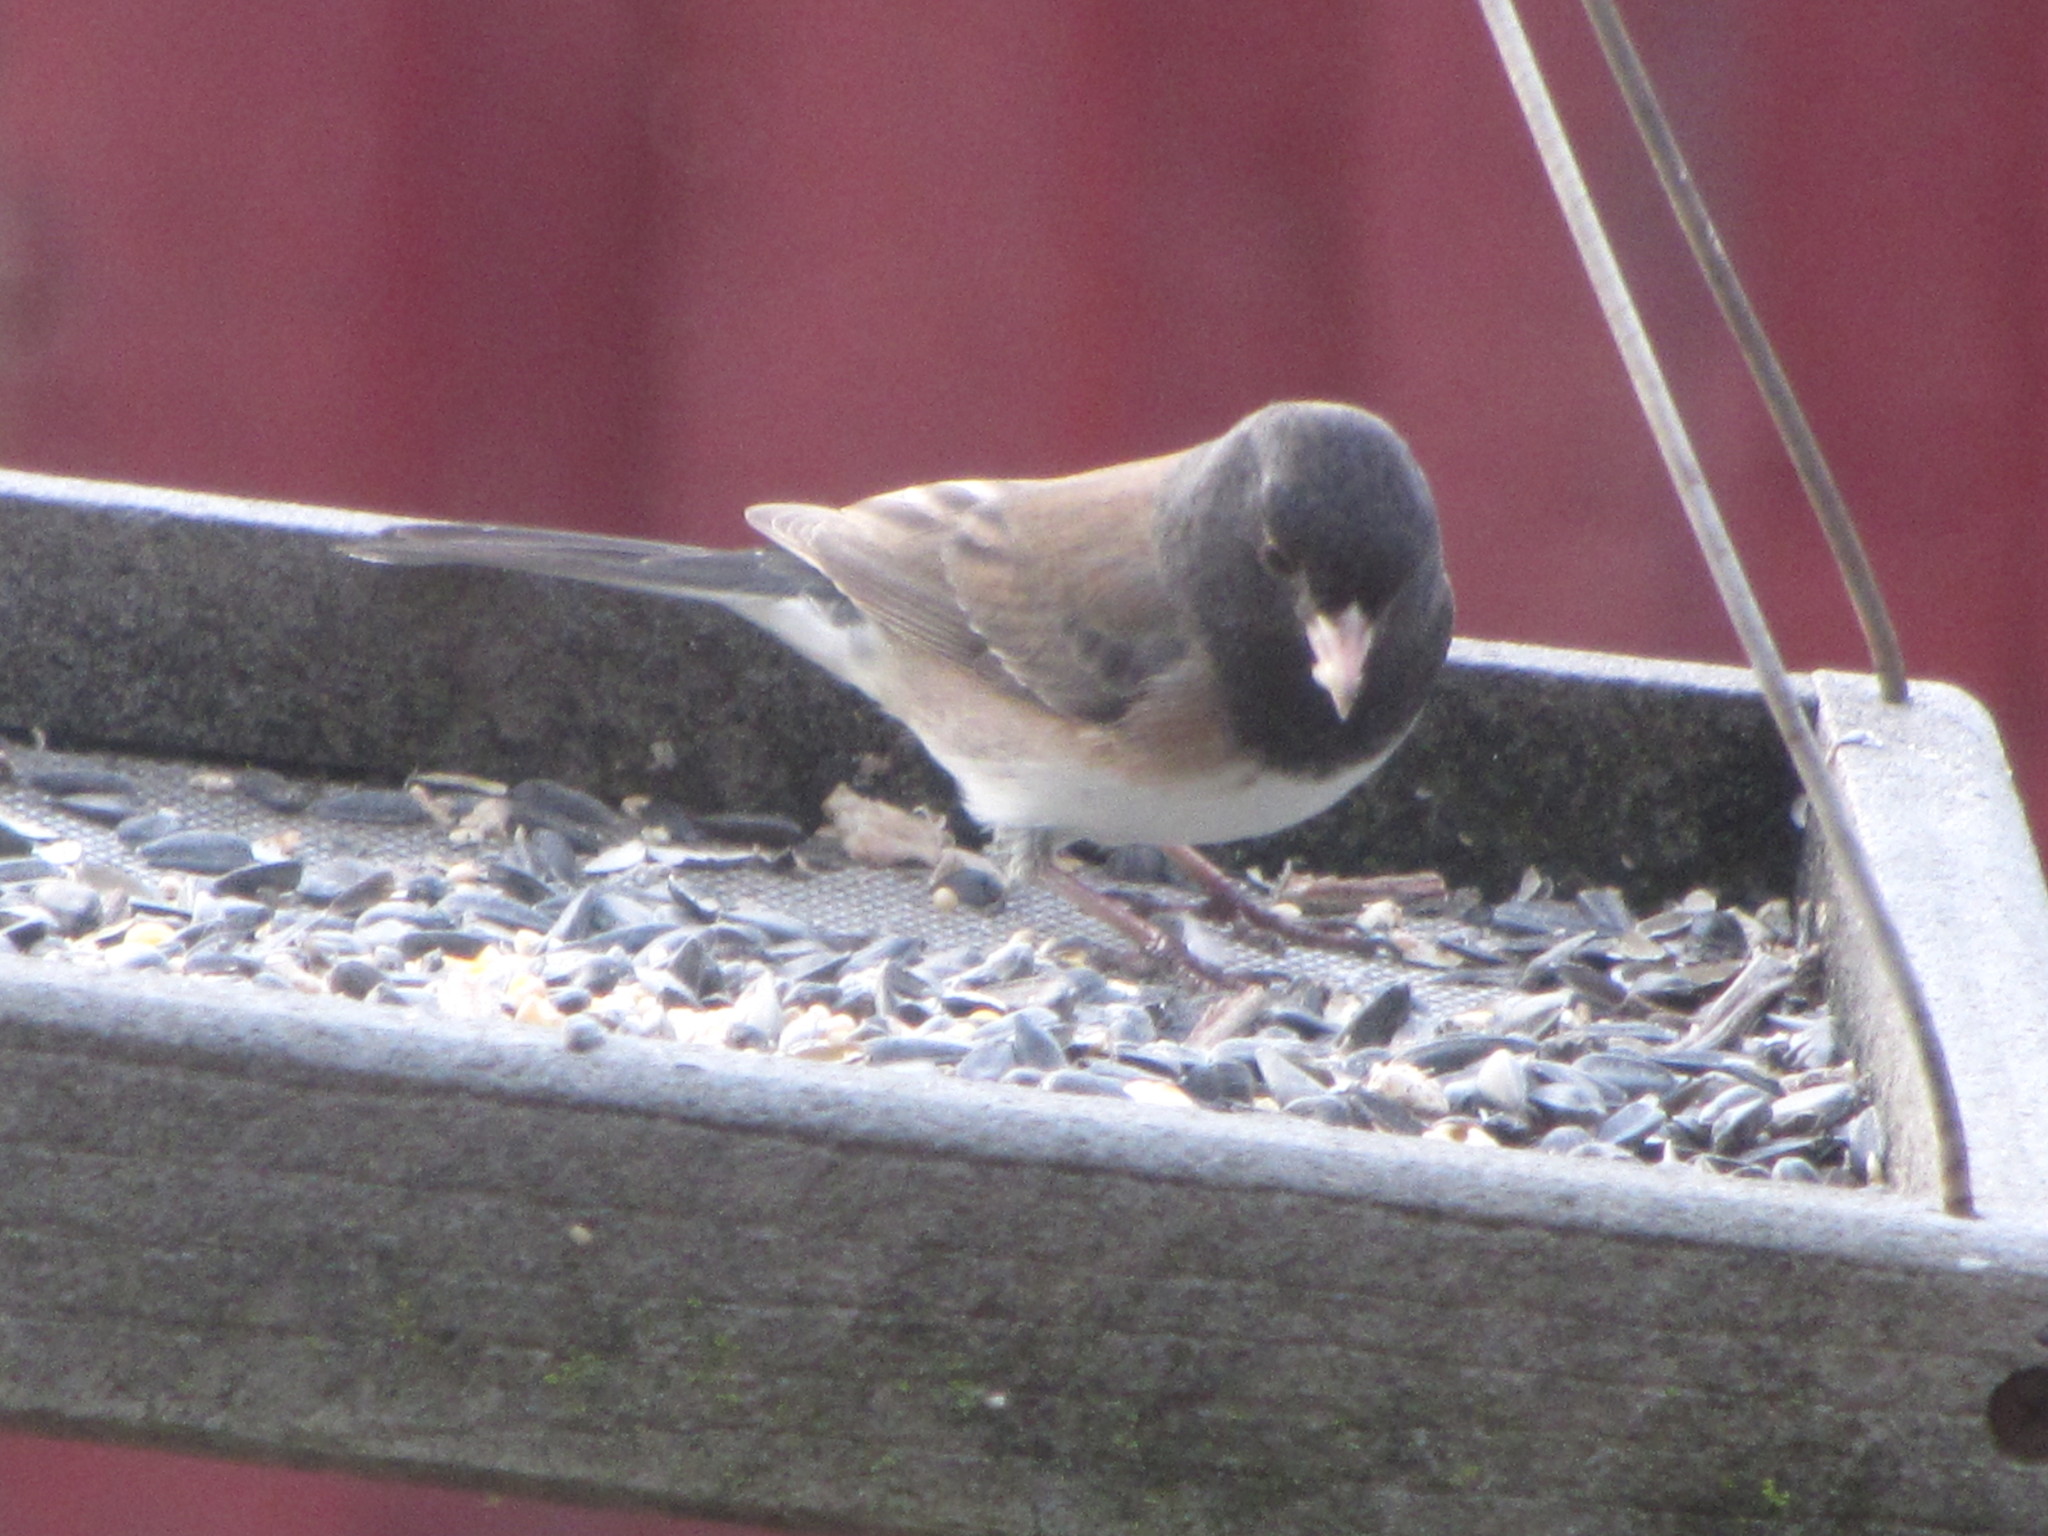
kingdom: Animalia
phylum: Chordata
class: Aves
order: Passeriformes
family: Passerellidae
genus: Junco
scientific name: Junco hyemalis
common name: Dark-eyed junco
